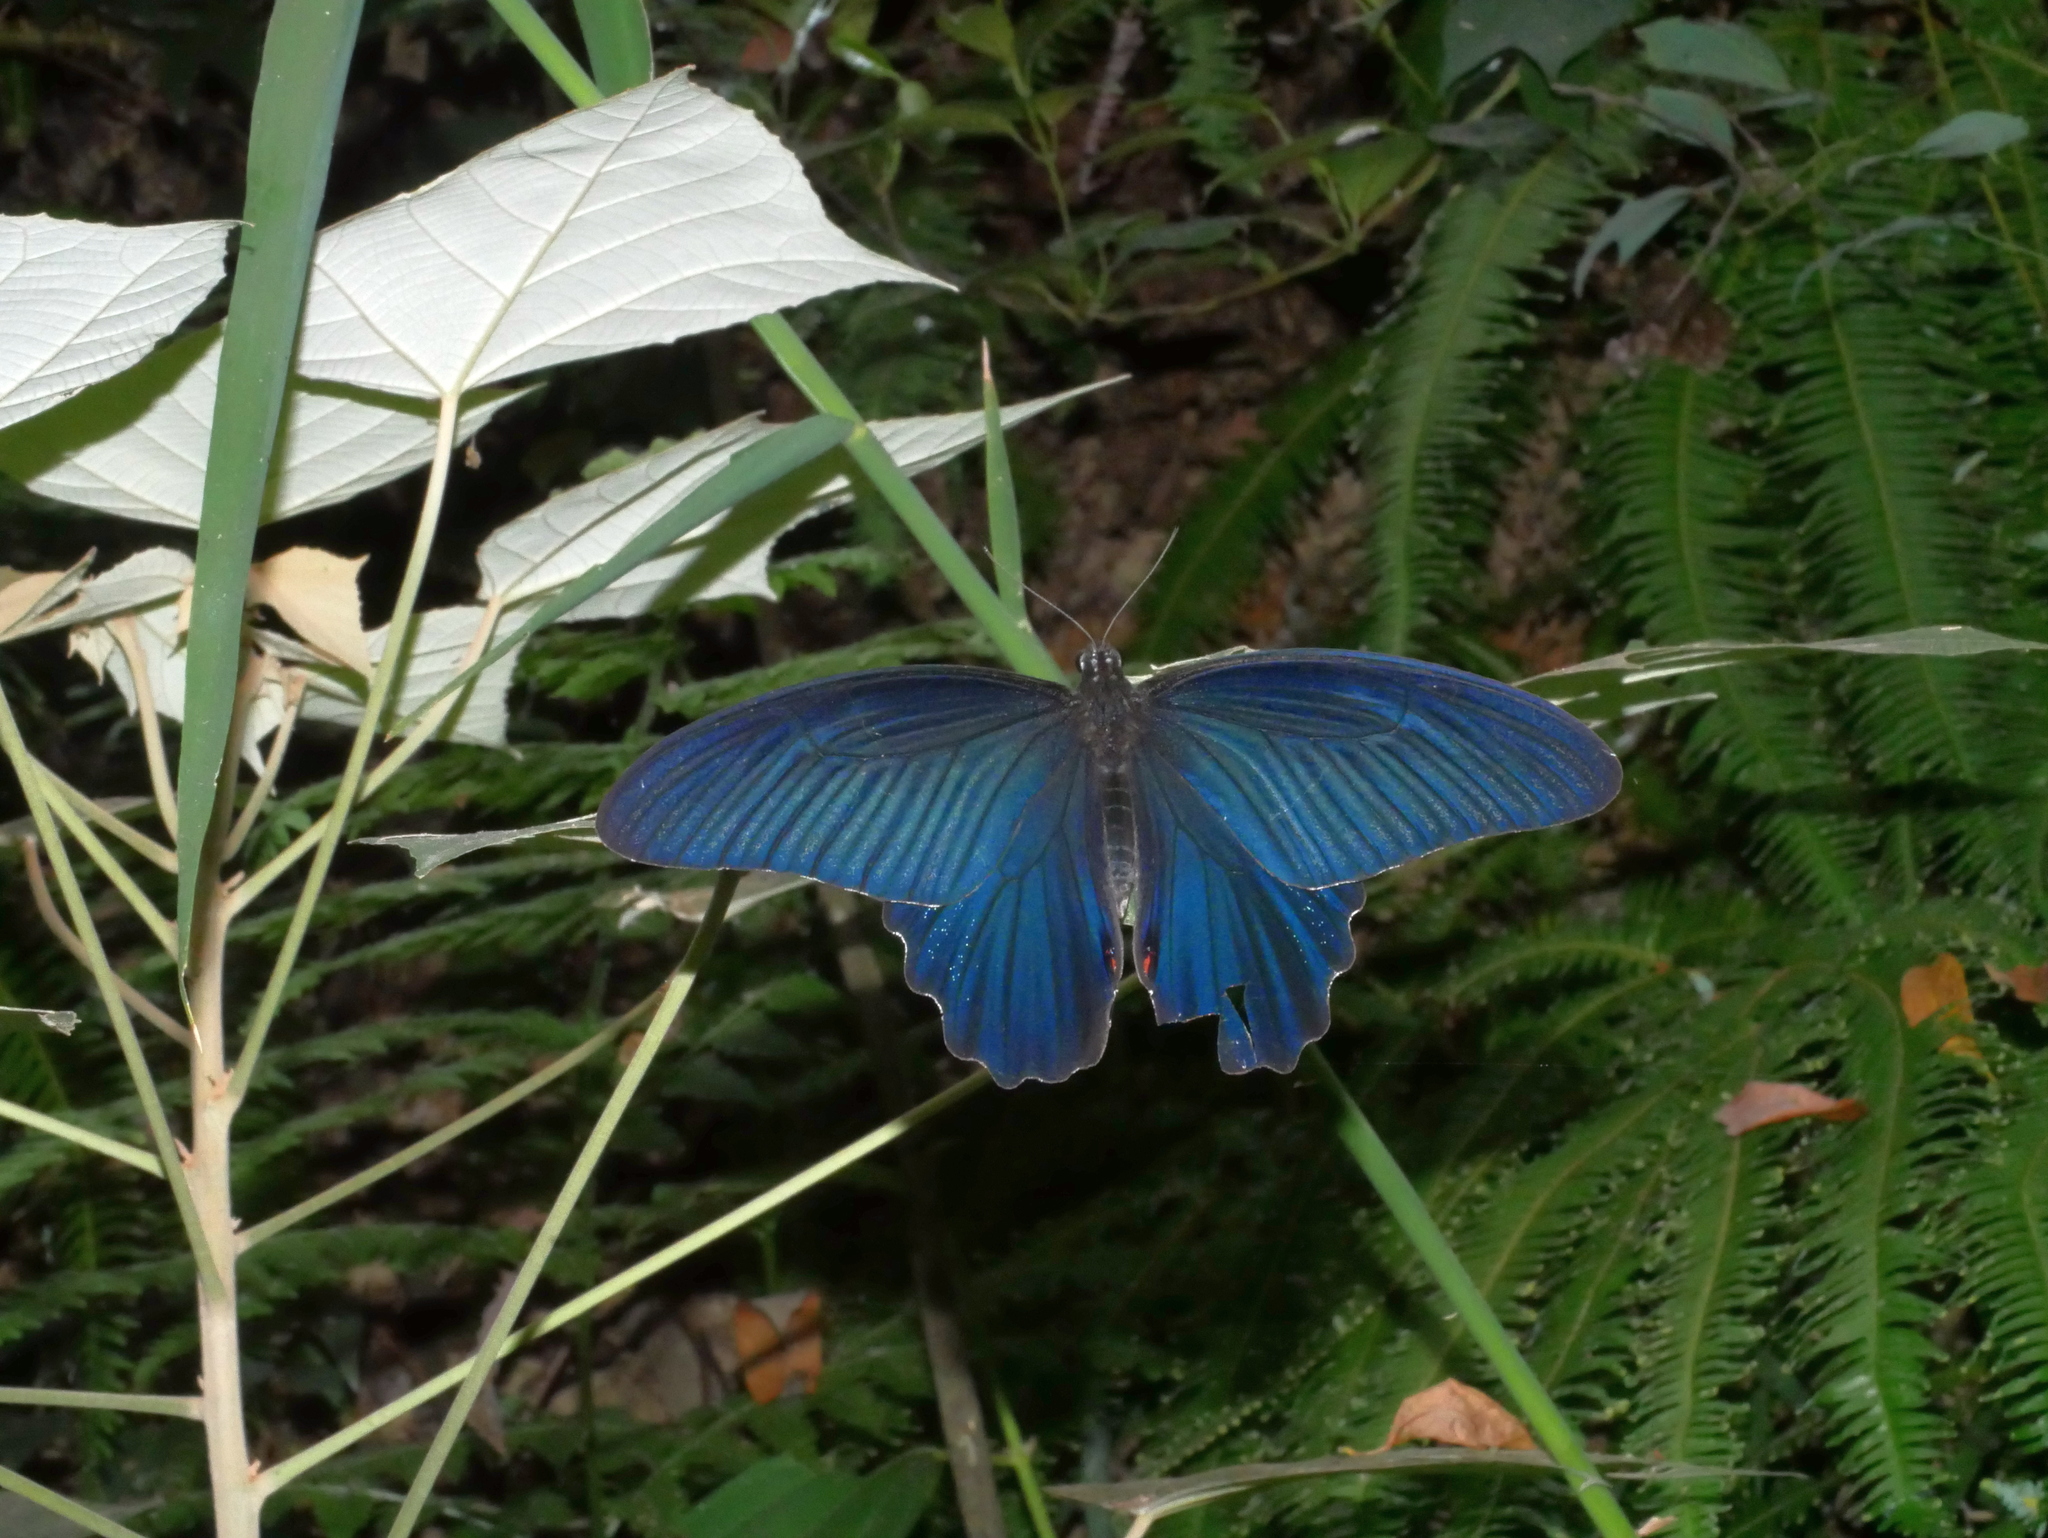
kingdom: Animalia
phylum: Arthropoda
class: Insecta
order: Lepidoptera
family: Papilionidae
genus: Papilio
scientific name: Papilio protenor
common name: Spangle
